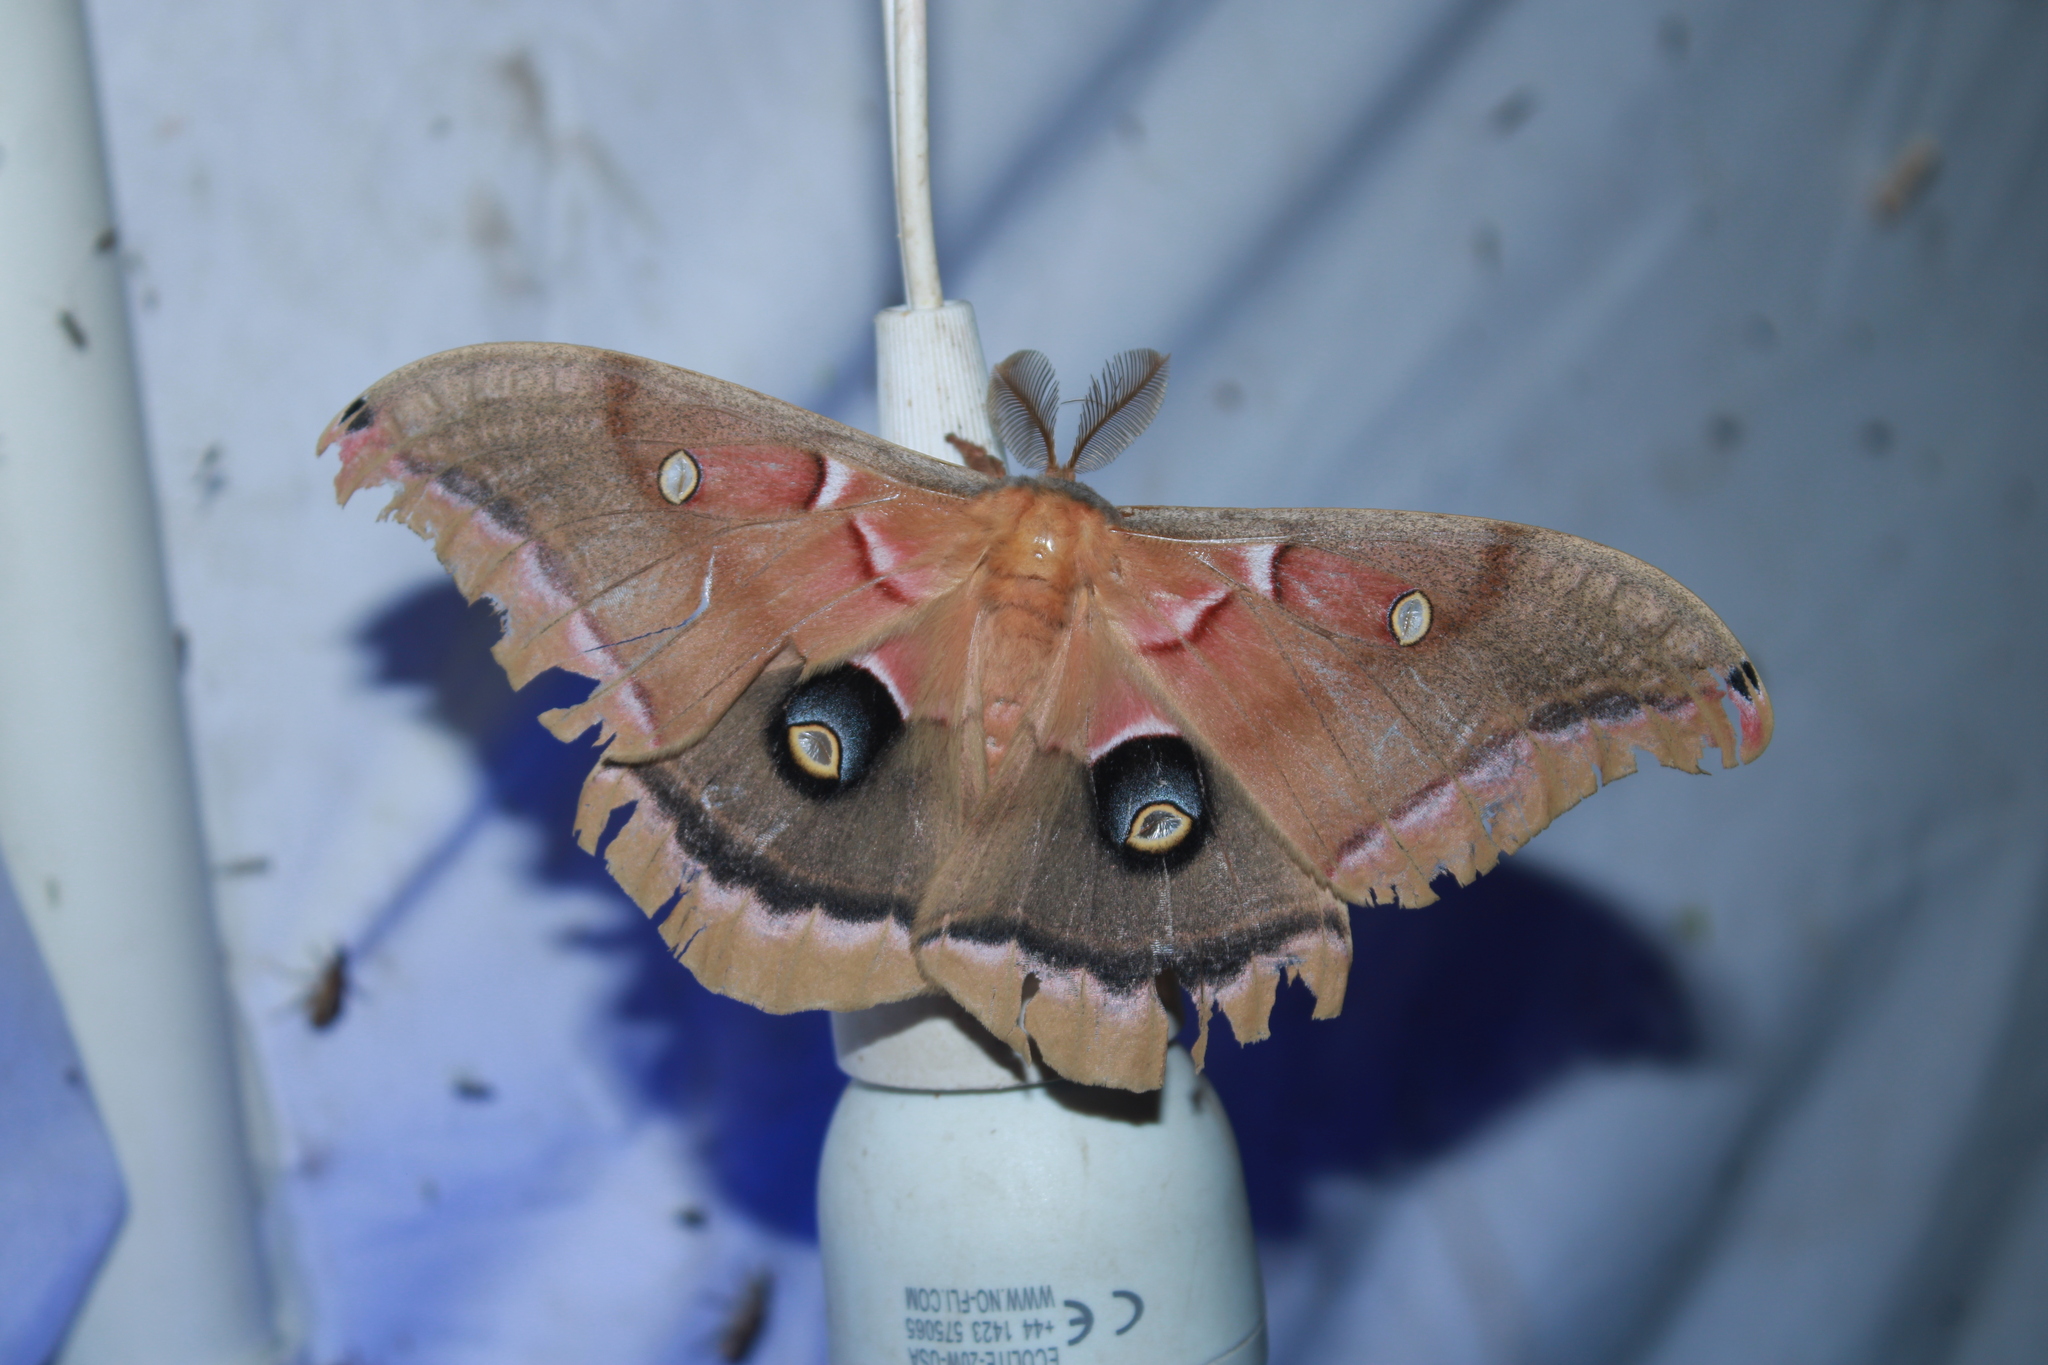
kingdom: Animalia
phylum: Arthropoda
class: Insecta
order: Lepidoptera
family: Saturniidae
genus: Antheraea
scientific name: Antheraea polyphemus
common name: Polyphemus moth
